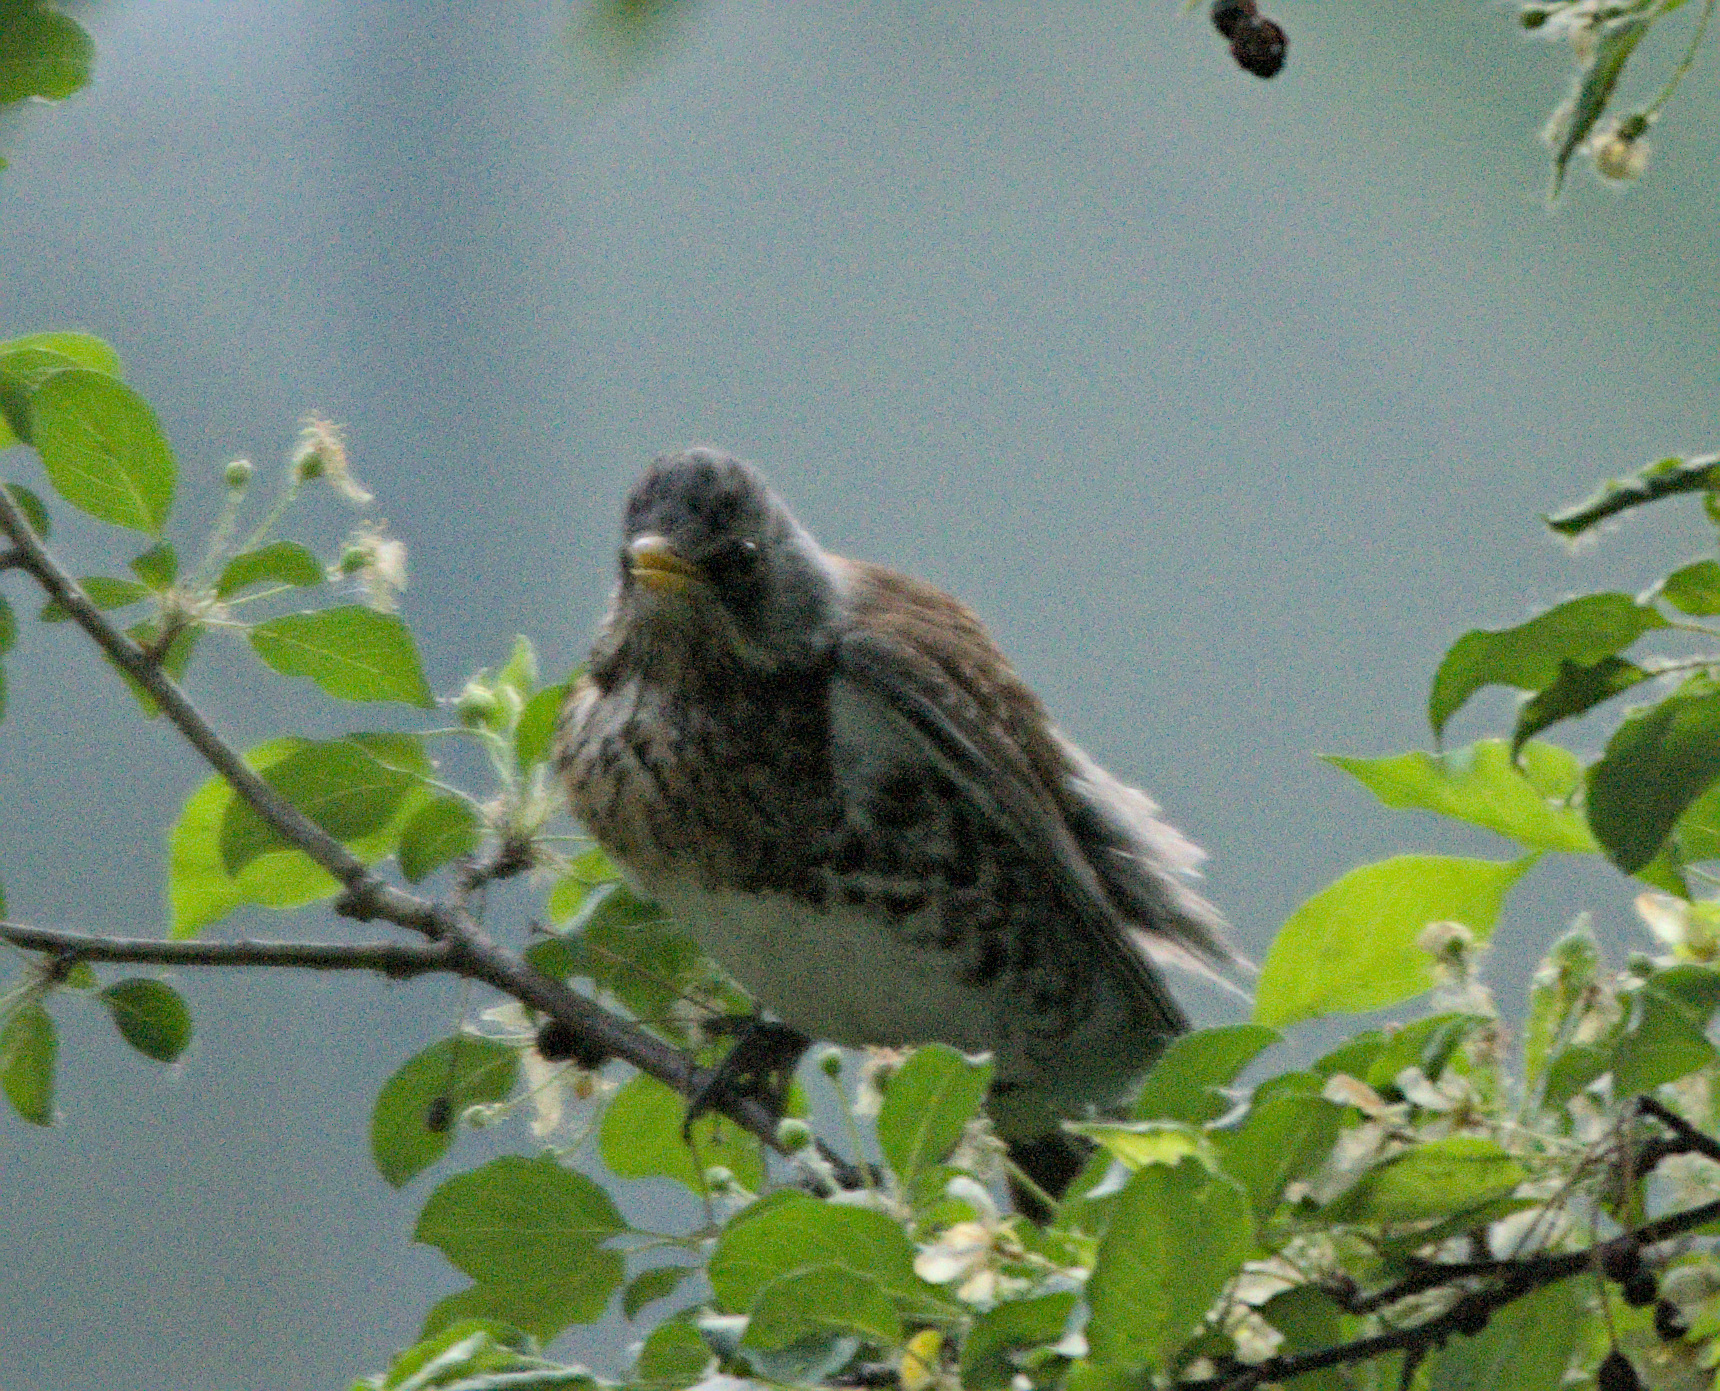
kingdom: Animalia
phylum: Chordata
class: Aves
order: Passeriformes
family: Turdidae
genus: Turdus
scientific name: Turdus pilaris
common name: Fieldfare
